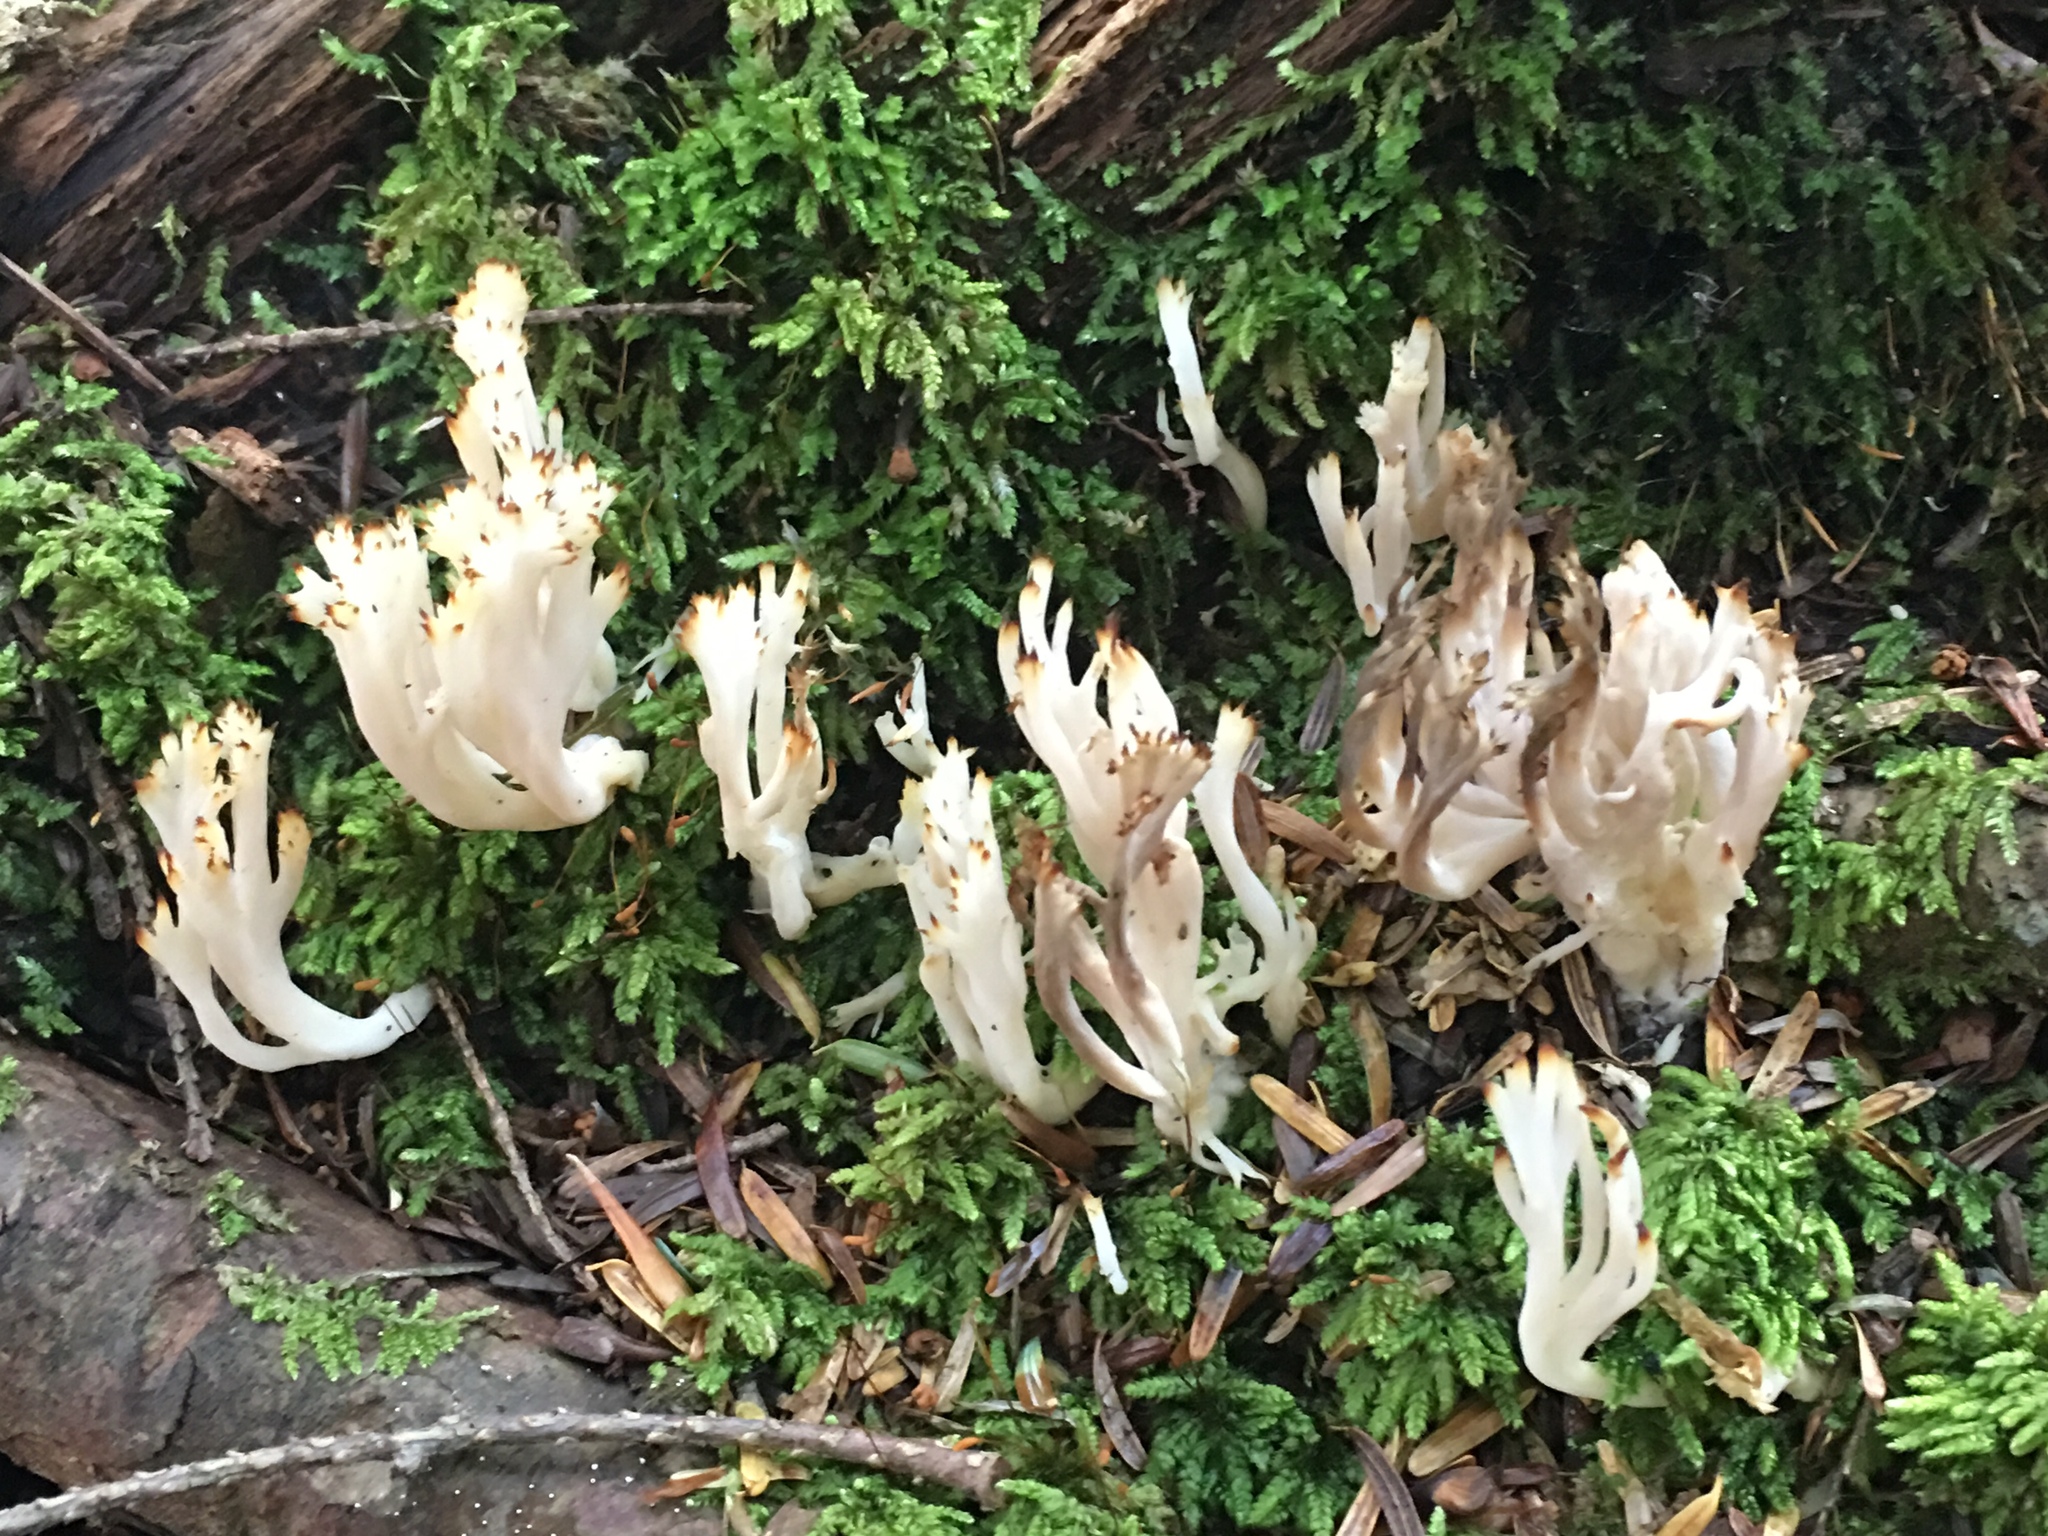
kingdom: Fungi
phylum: Basidiomycota
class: Agaricomycetes
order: Cantharellales
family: Hydnaceae
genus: Clavulina
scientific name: Clavulina coralloides
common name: Crested coral
